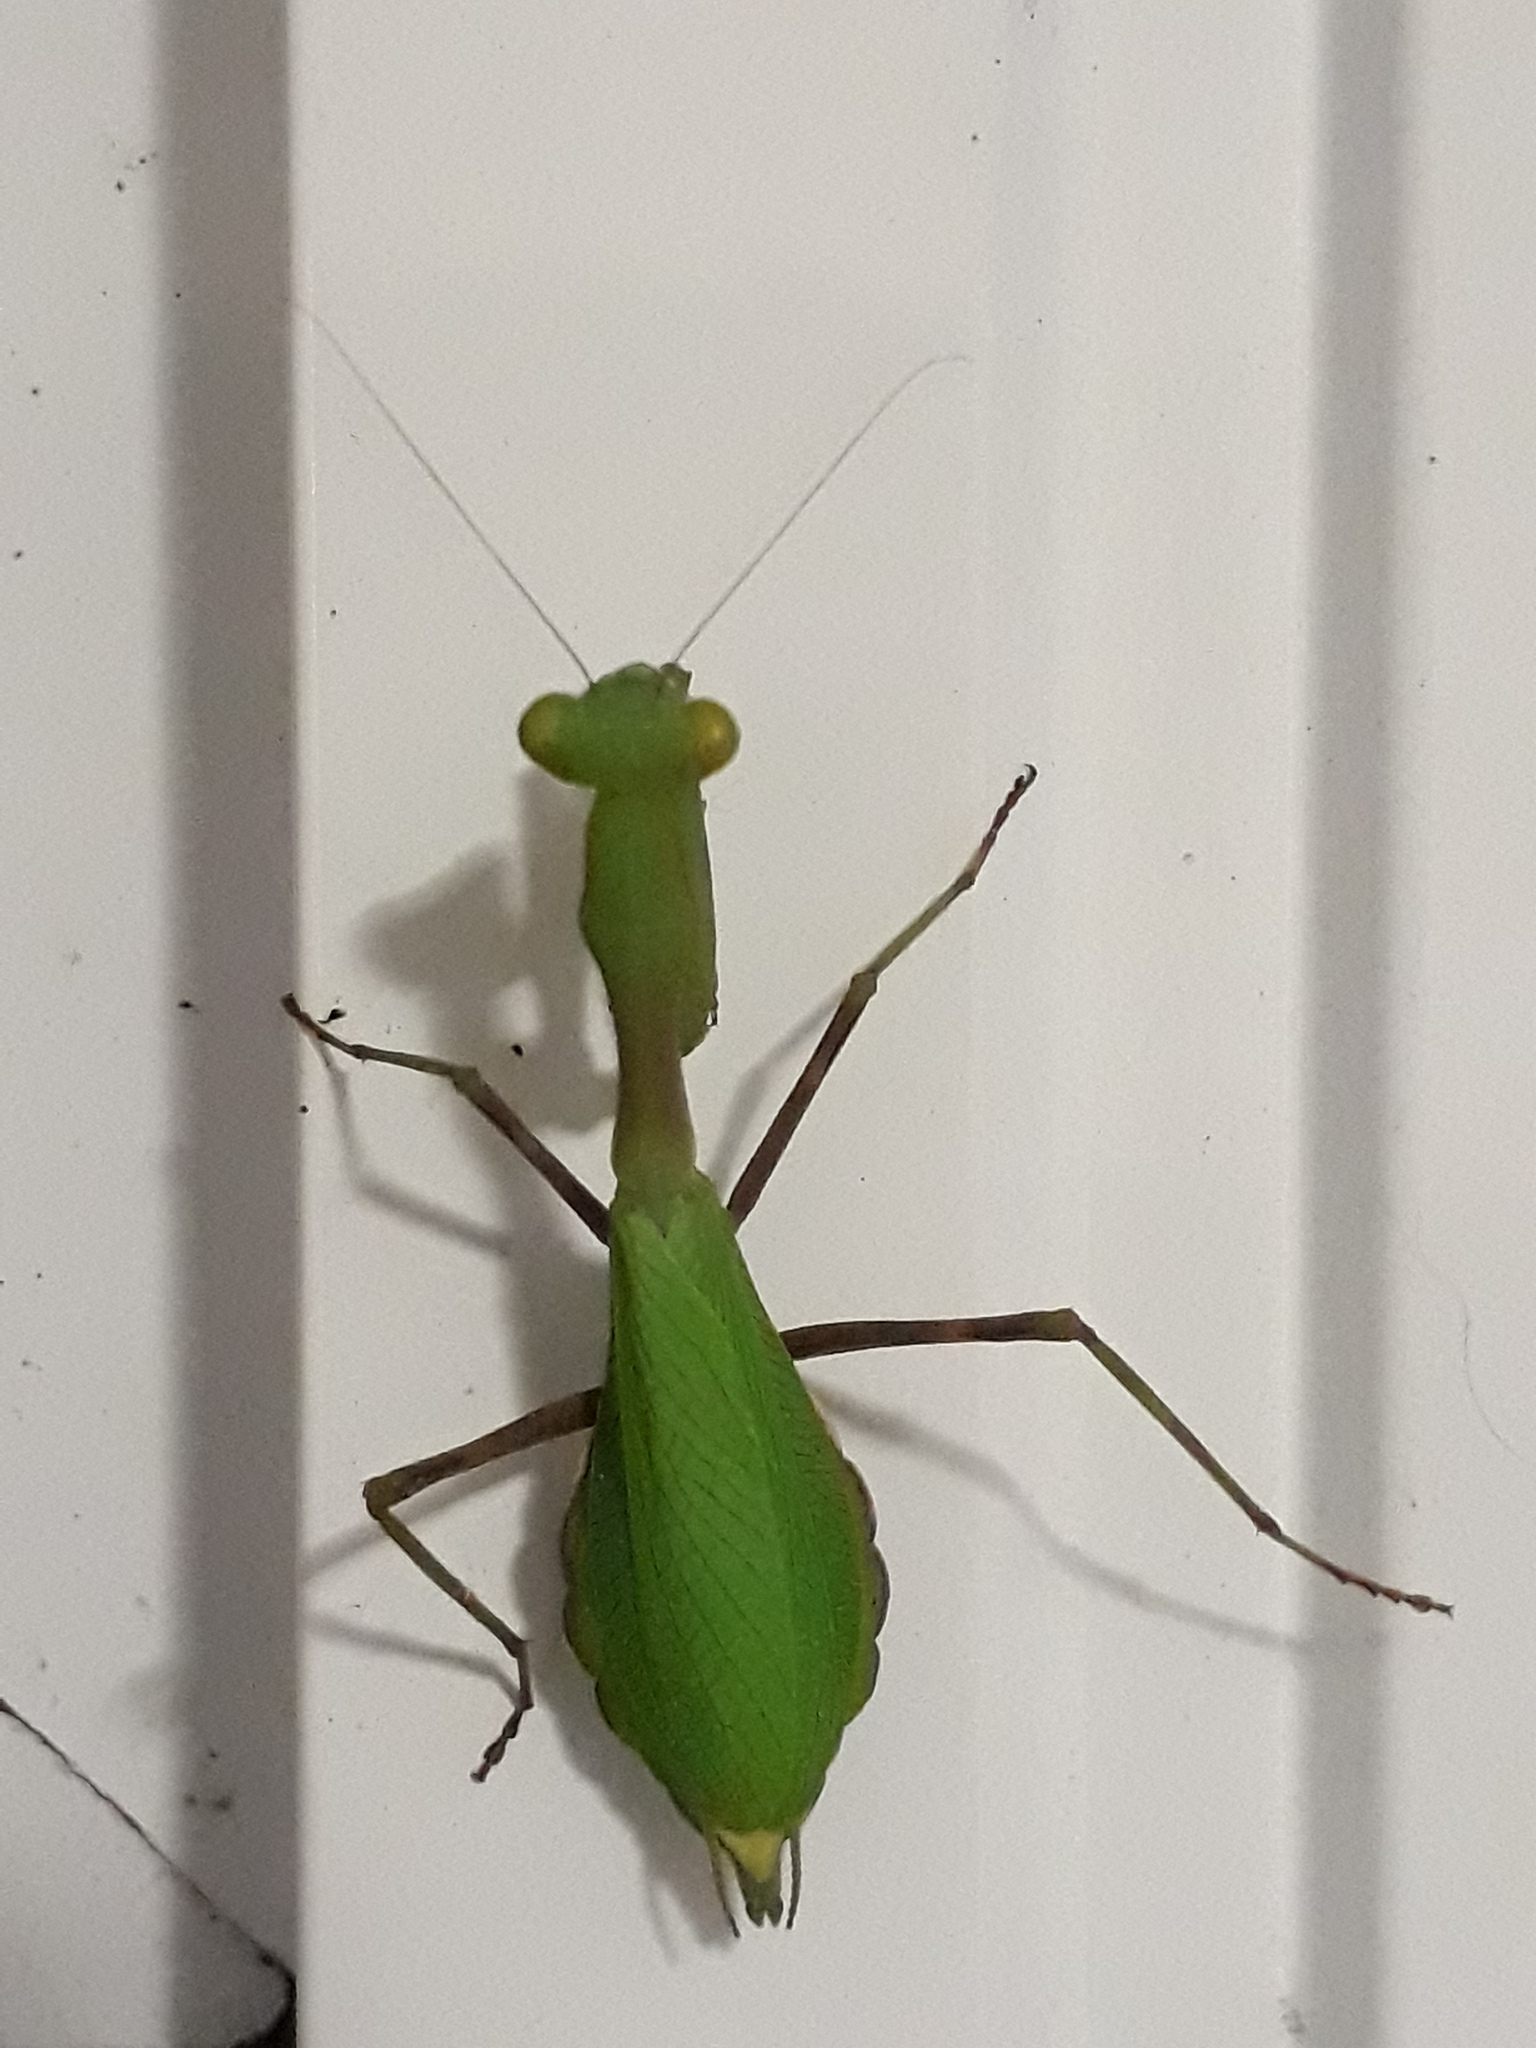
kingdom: Animalia
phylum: Arthropoda
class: Insecta
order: Mantodea
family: Miomantidae
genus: Miomantis
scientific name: Miomantis caffra
